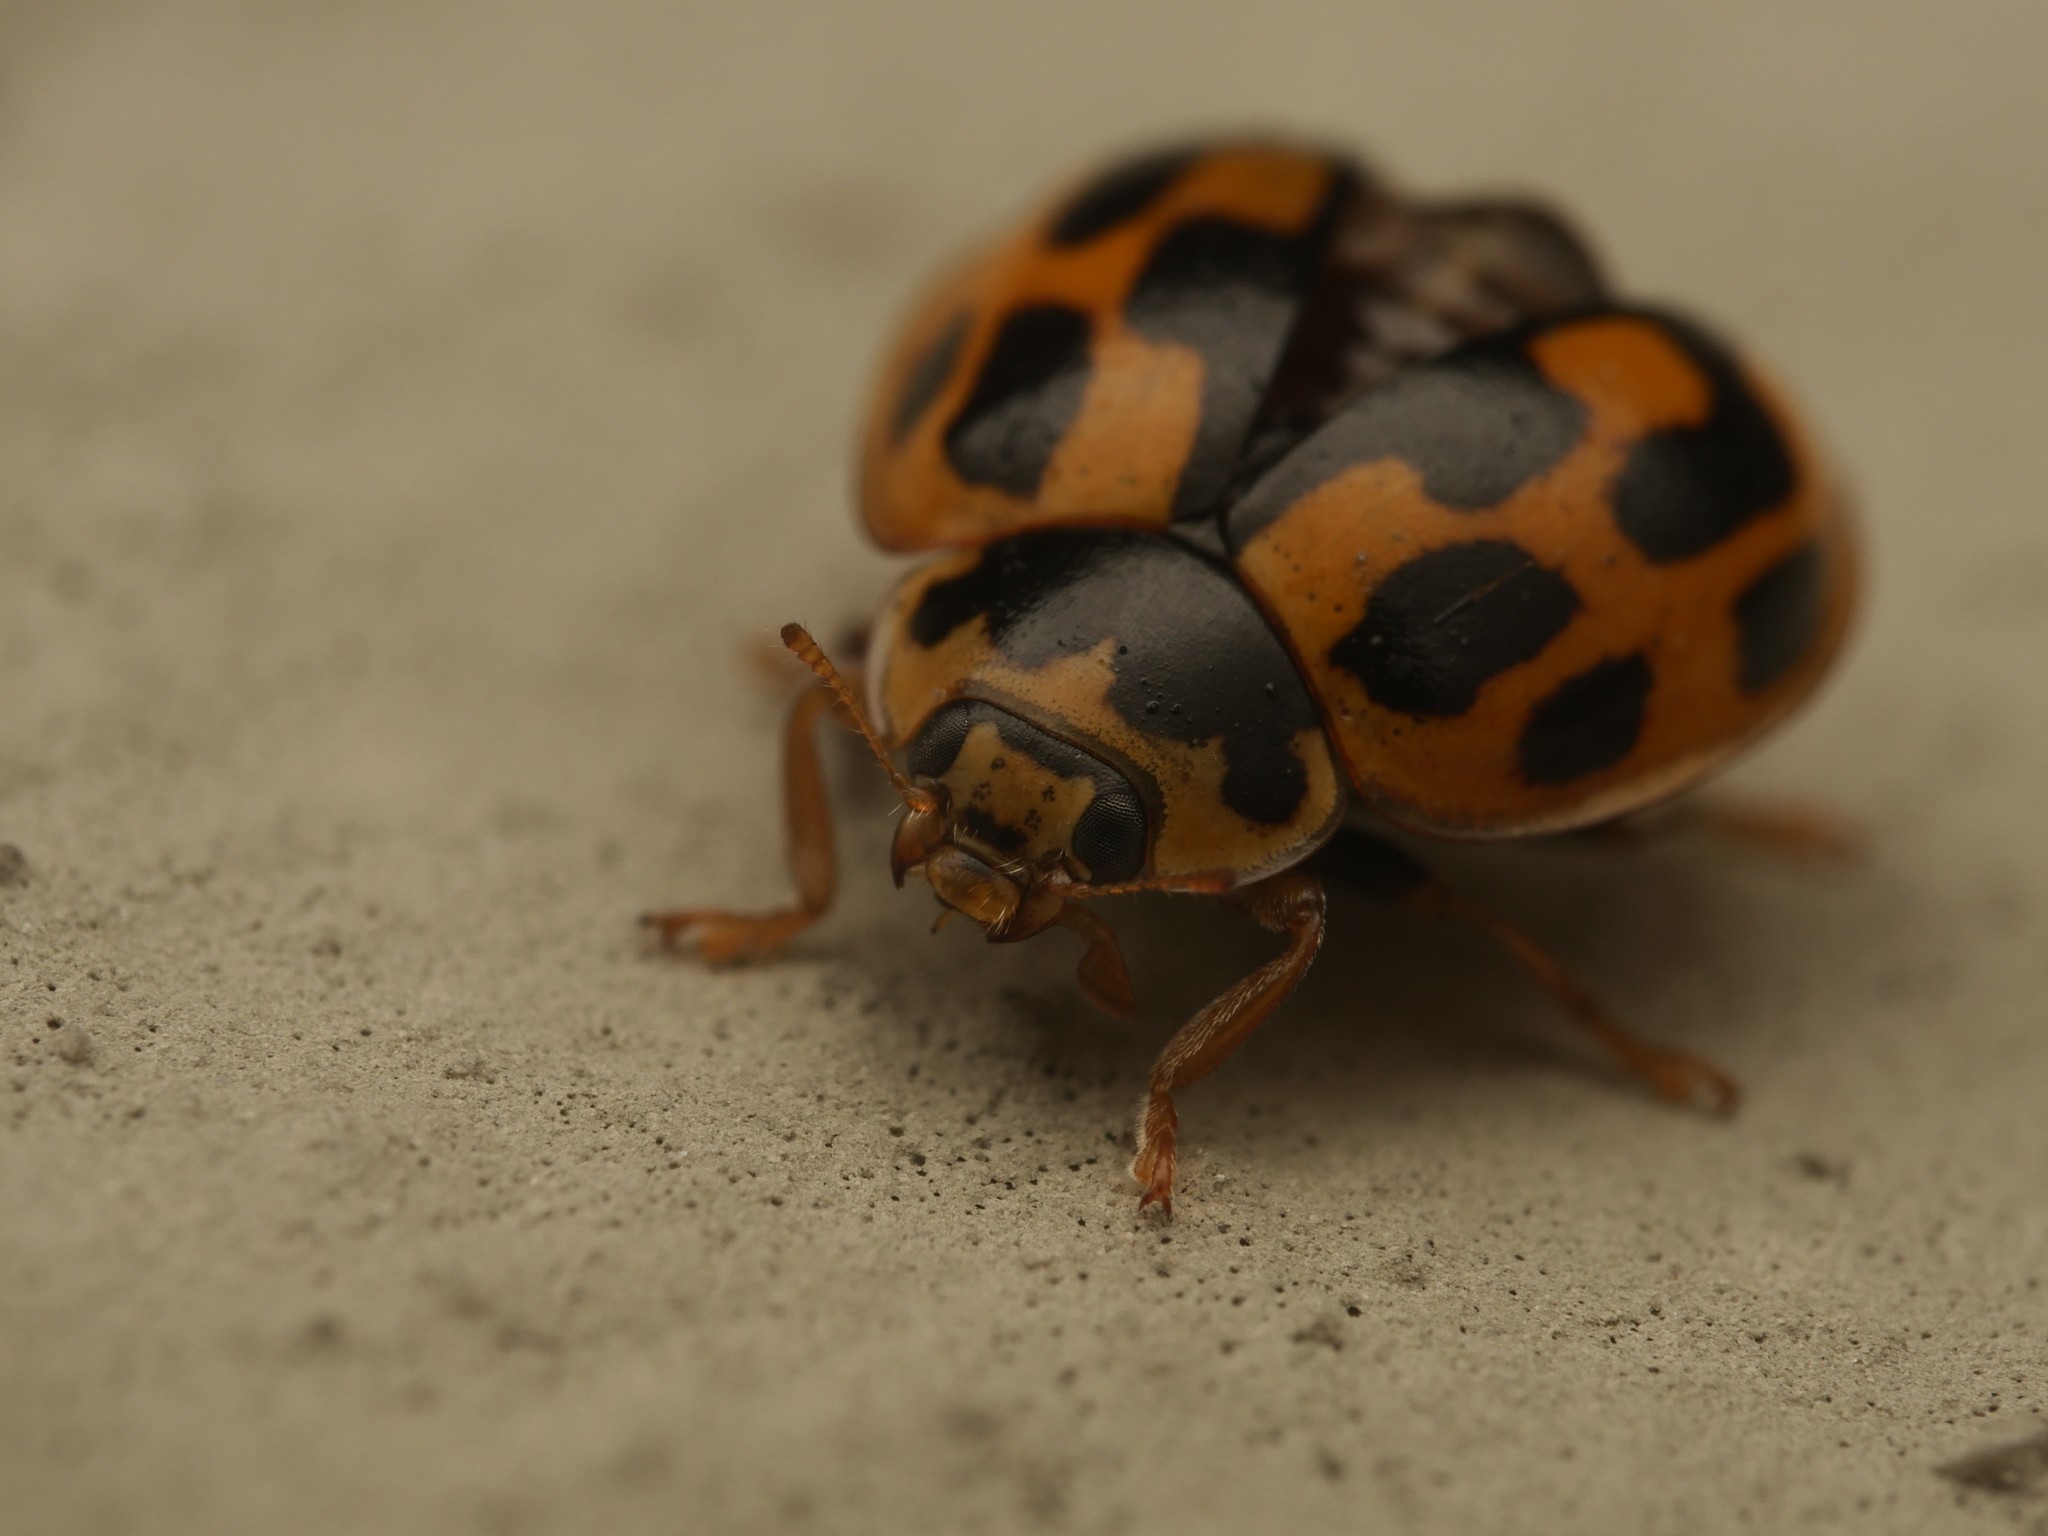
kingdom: Animalia
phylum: Arthropoda
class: Insecta
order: Coleoptera
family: Coccinellidae
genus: Propylaea
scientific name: Propylaea quatuordecimpunctata
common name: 14-spotted ladybird beetle
